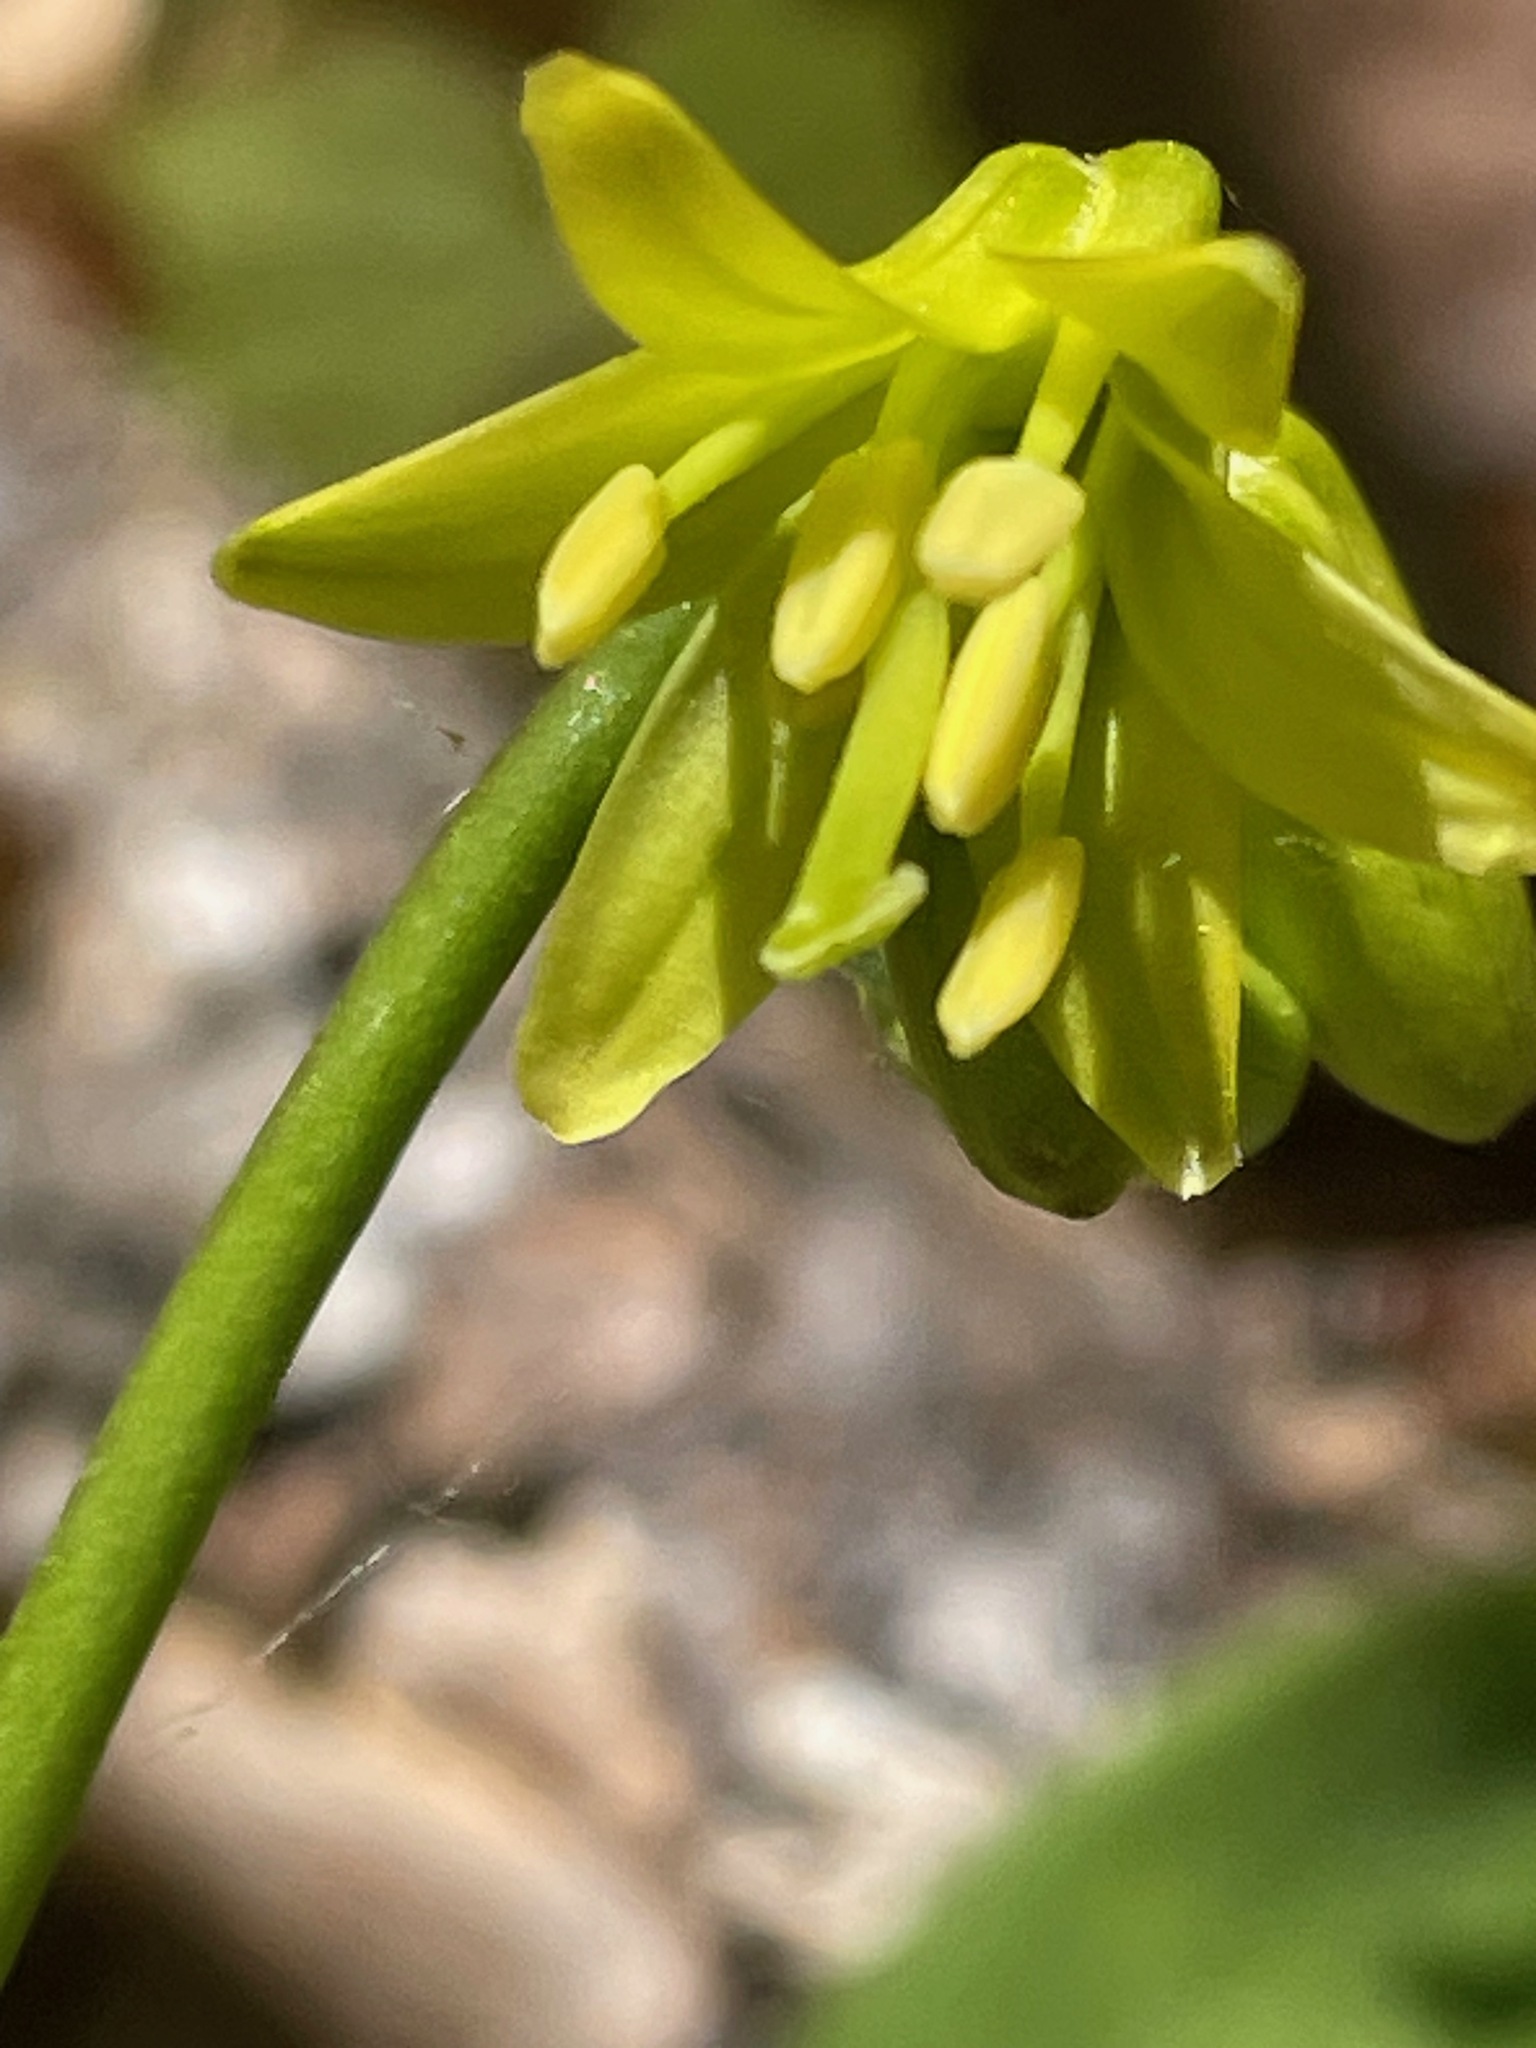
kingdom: Plantae
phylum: Tracheophyta
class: Liliopsida
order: Liliales
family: Liliaceae
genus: Clintonia
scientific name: Clintonia borealis
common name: Yellow clintonia
